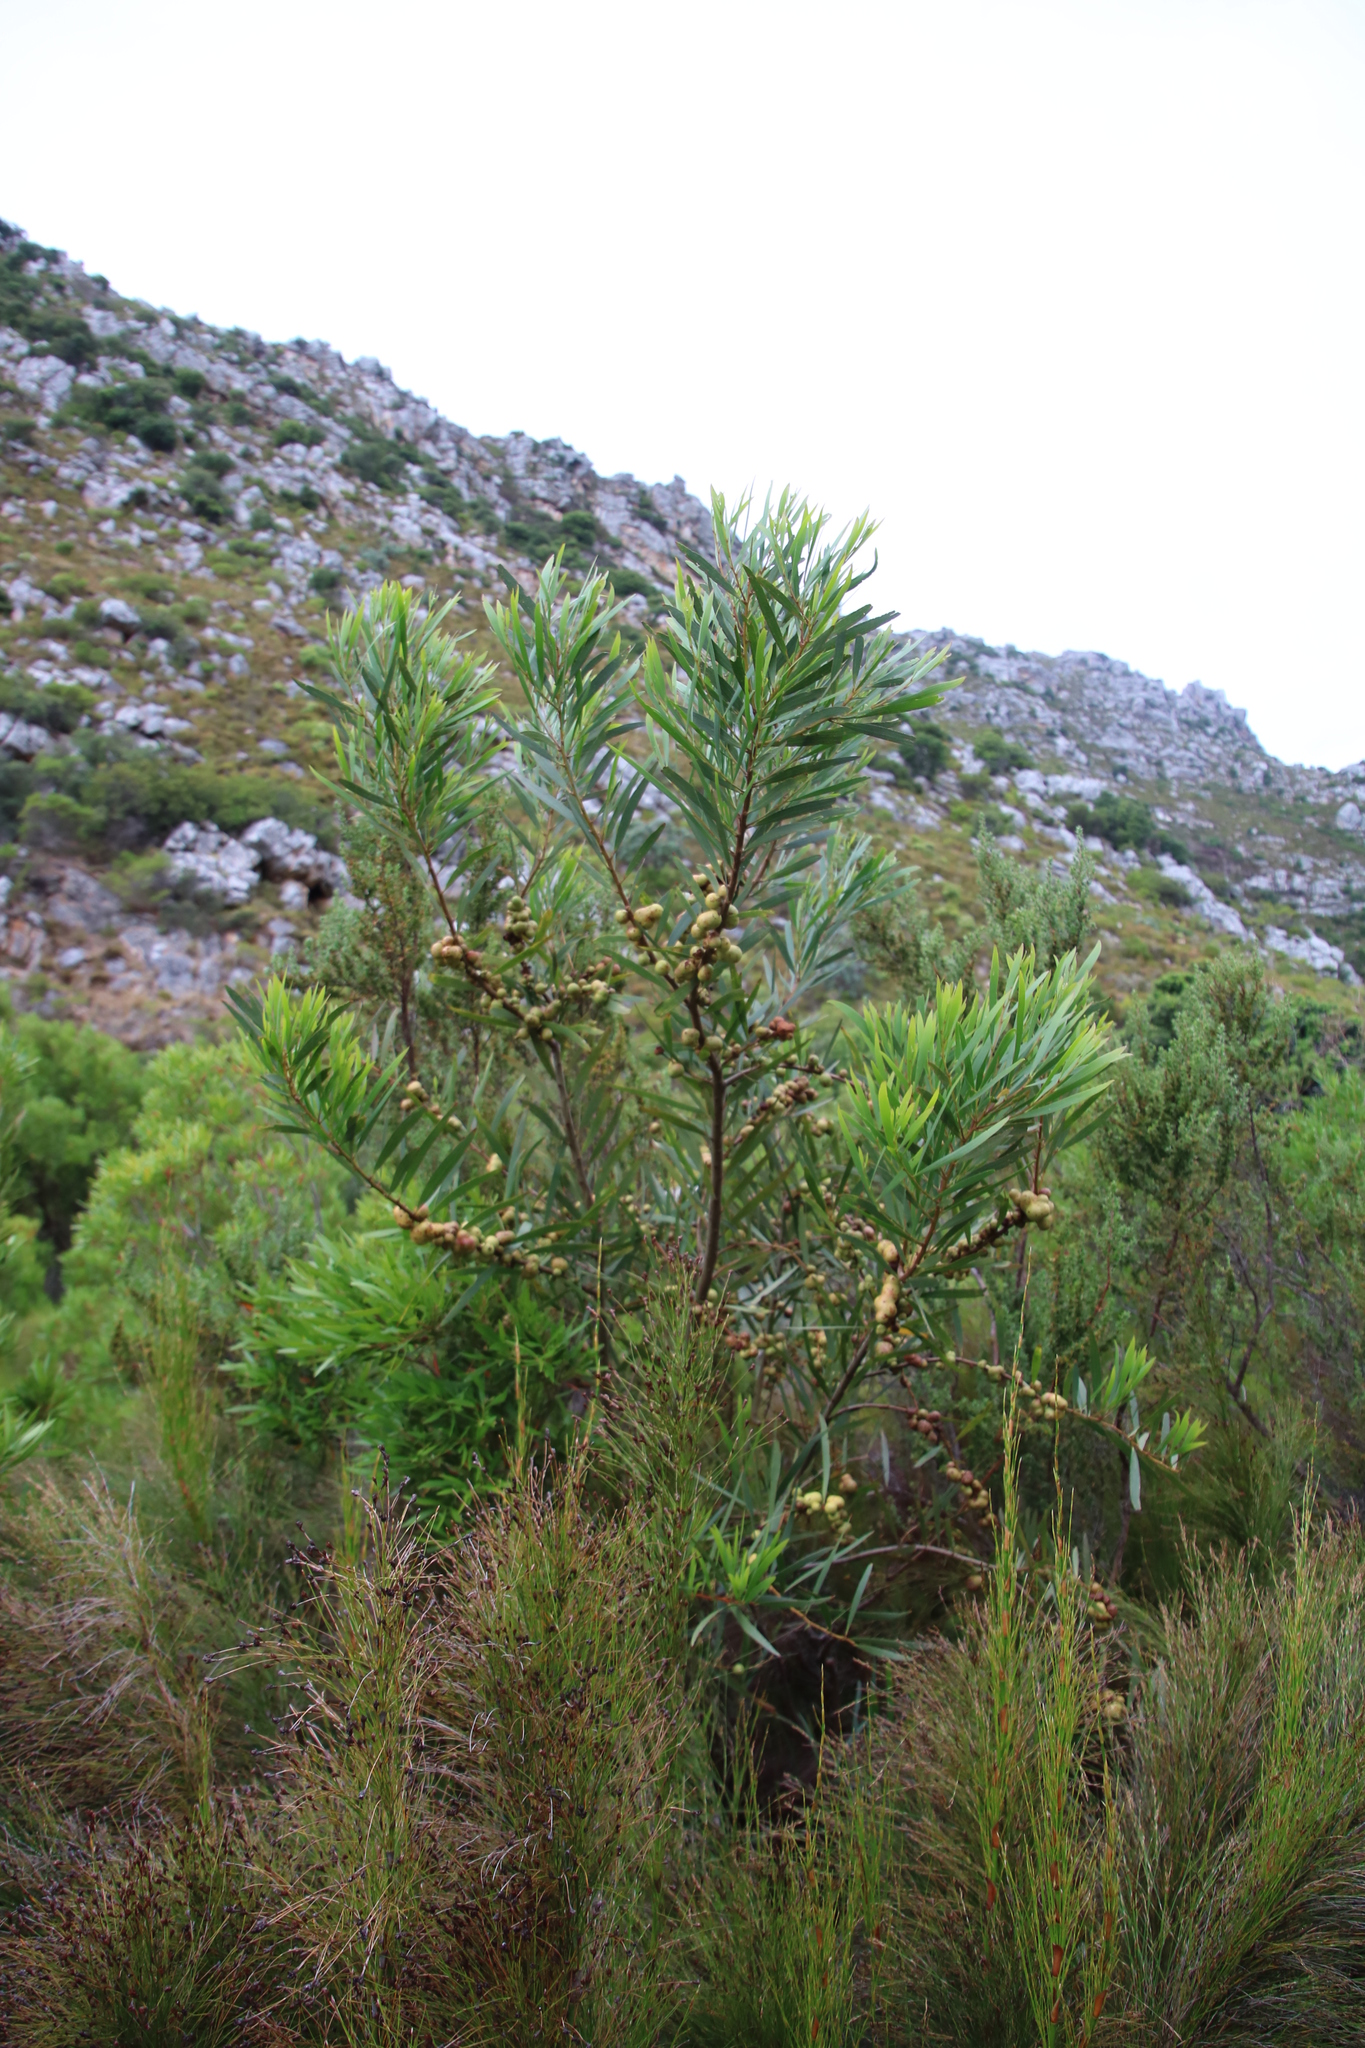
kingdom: Animalia
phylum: Arthropoda
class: Insecta
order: Hymenoptera
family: Pteromalidae
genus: Trichilogaster
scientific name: Trichilogaster acaciaelongifoliae
